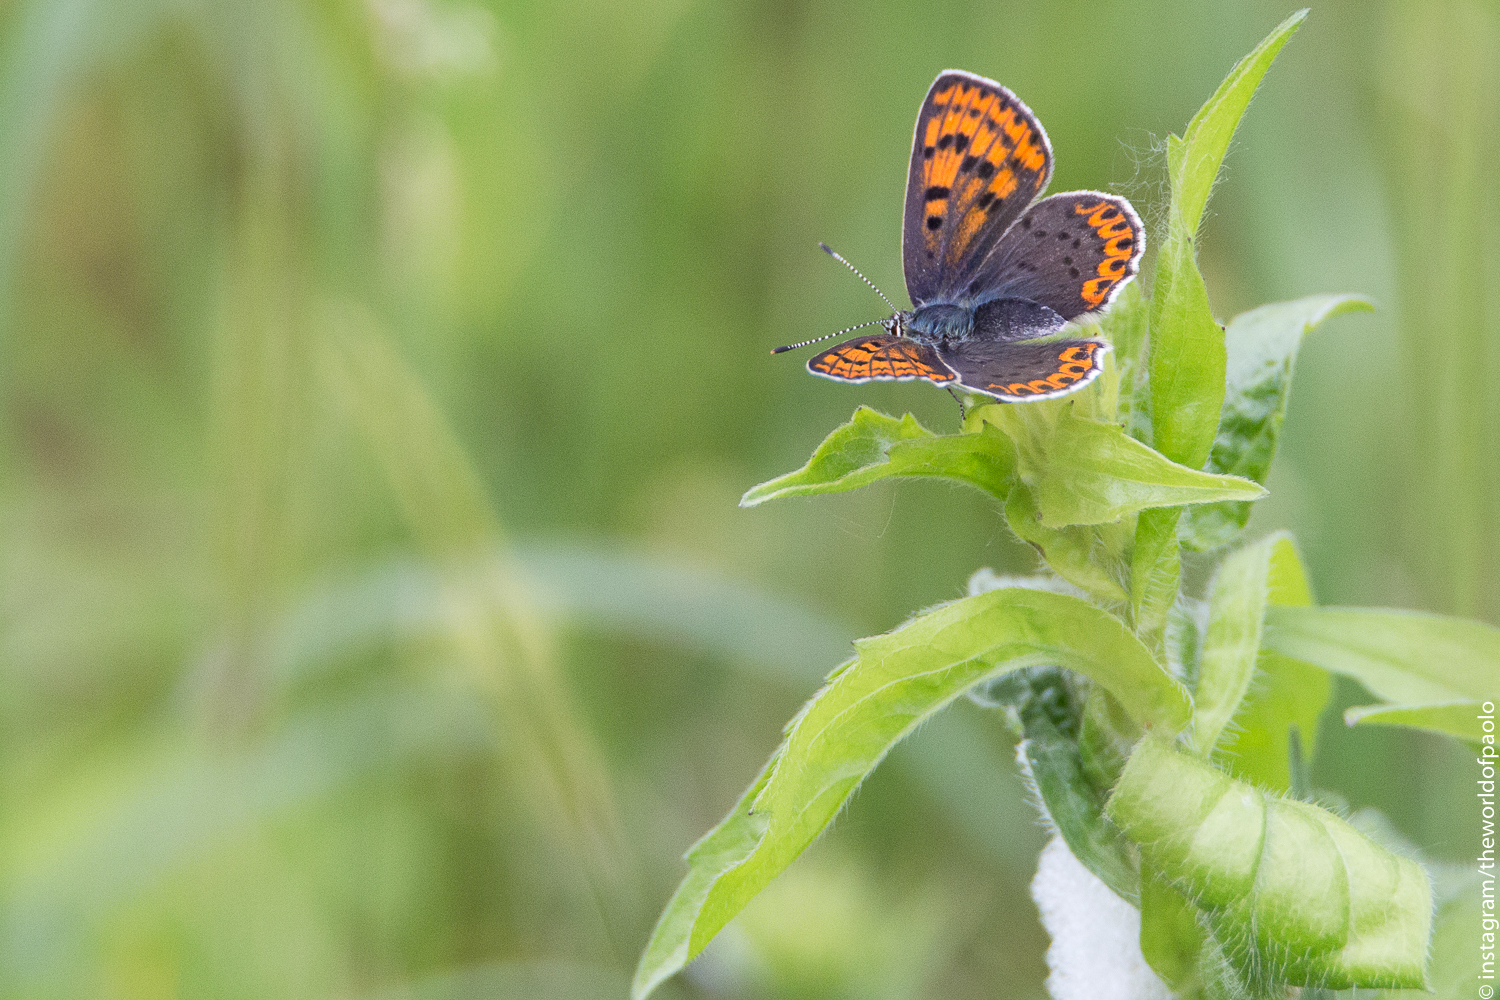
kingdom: Animalia
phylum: Arthropoda
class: Insecta
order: Lepidoptera
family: Lycaenidae
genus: Loweia
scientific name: Loweia tityrus
